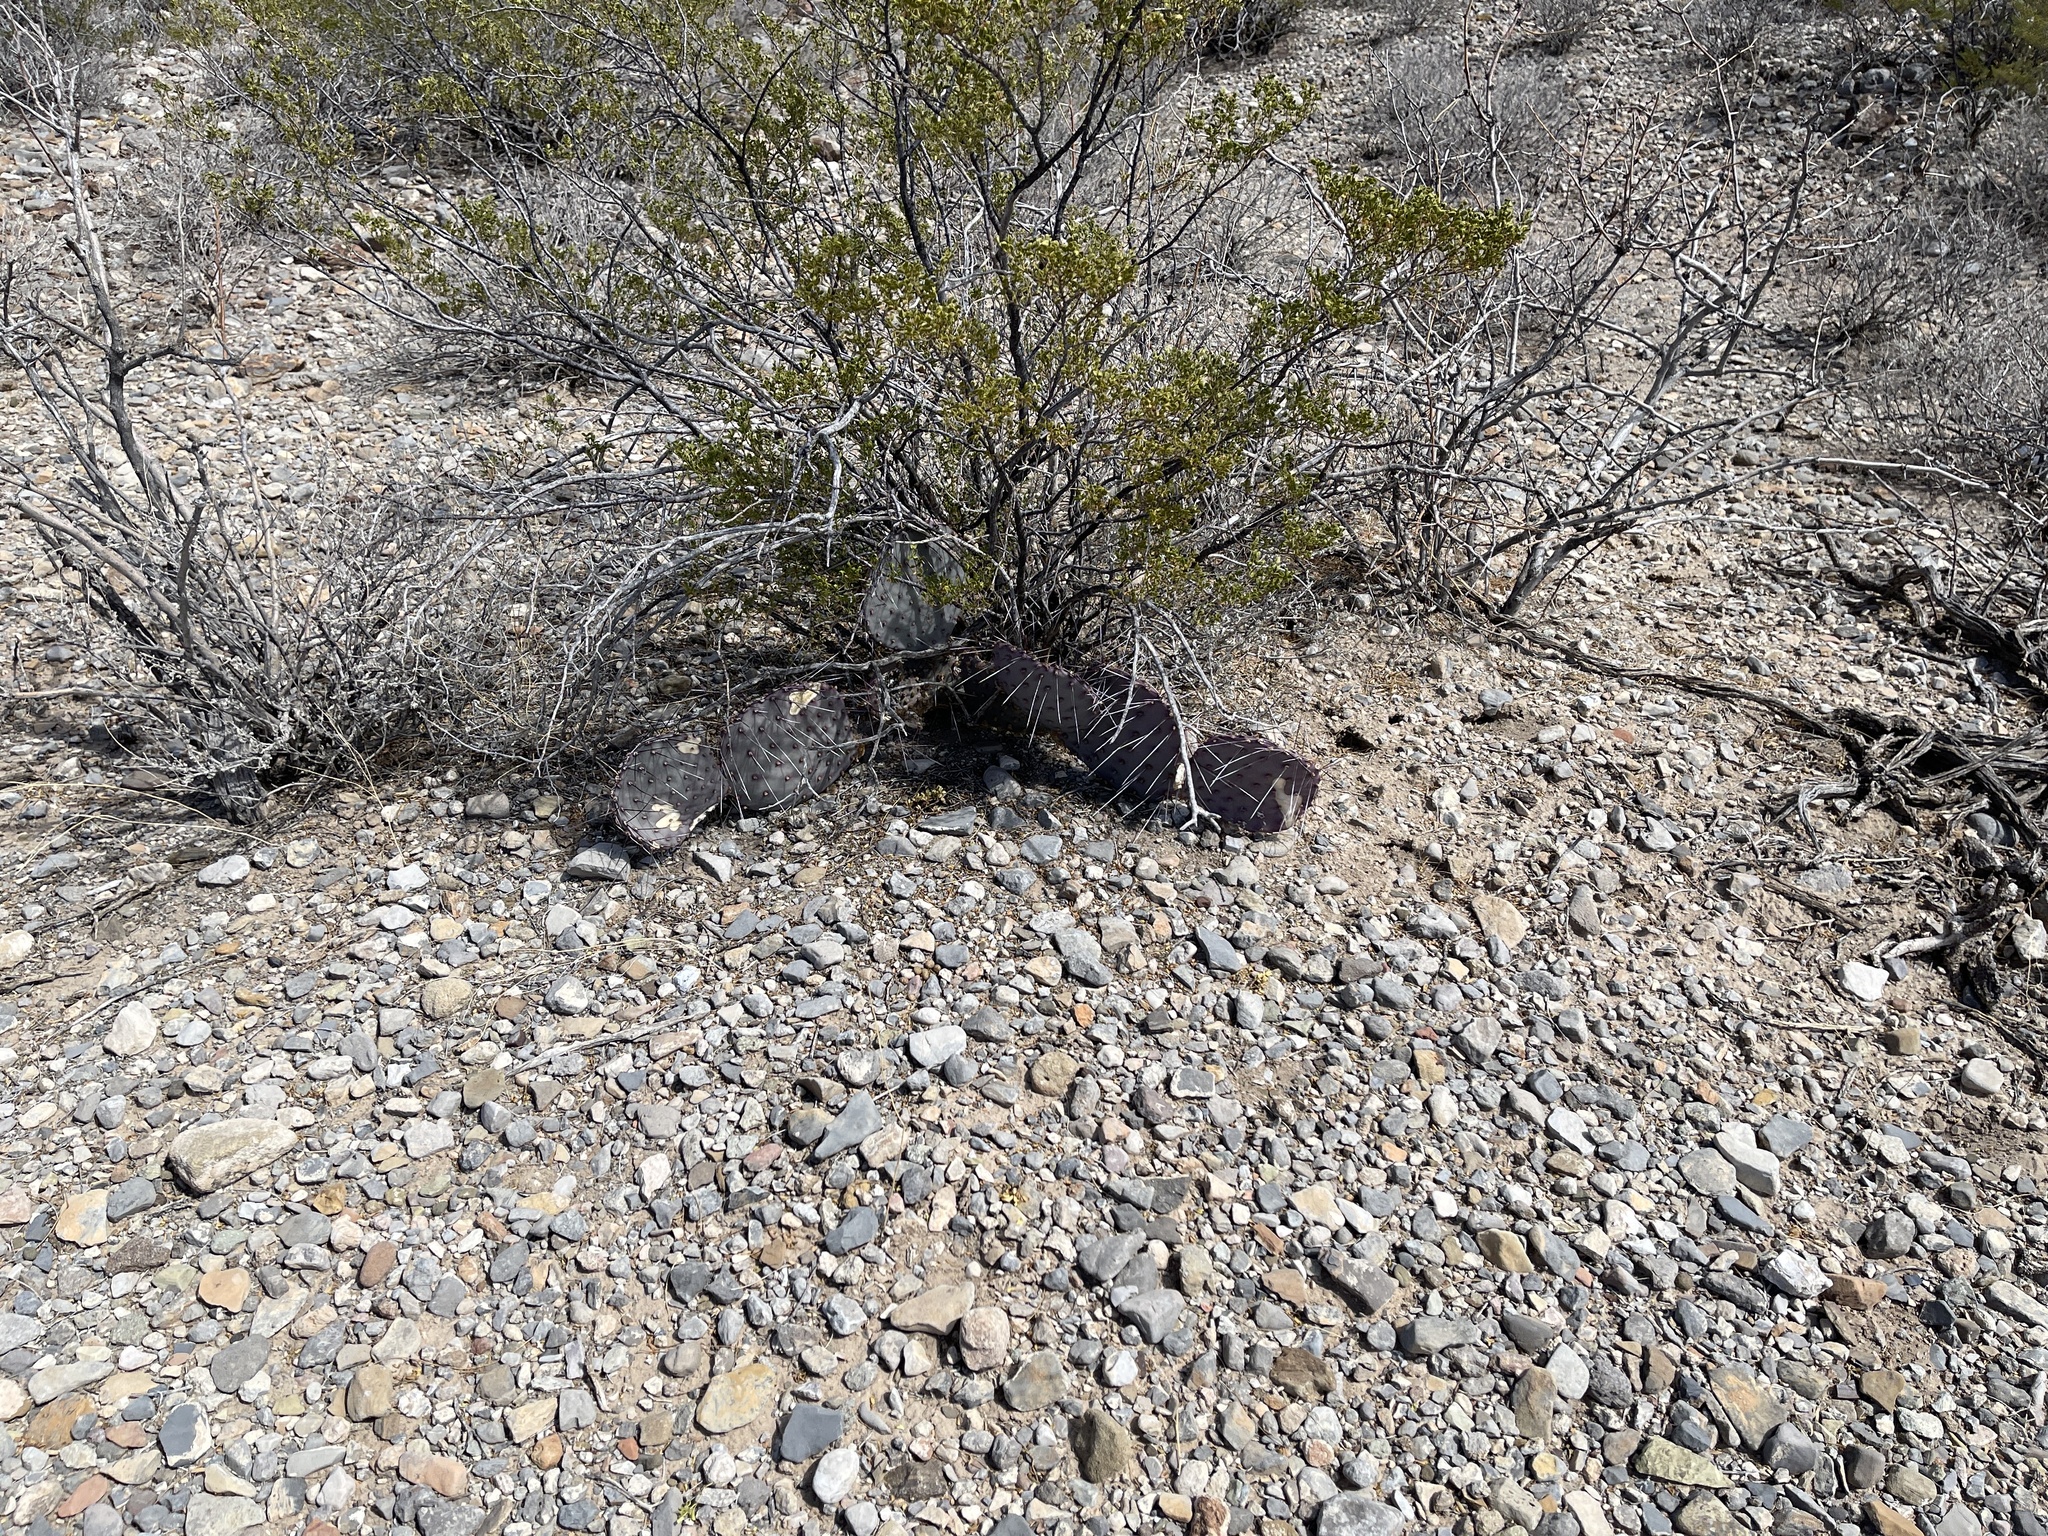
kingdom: Plantae
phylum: Tracheophyta
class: Magnoliopsida
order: Caryophyllales
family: Cactaceae
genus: Opuntia
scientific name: Opuntia macrocentra
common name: Purple prickly-pear
